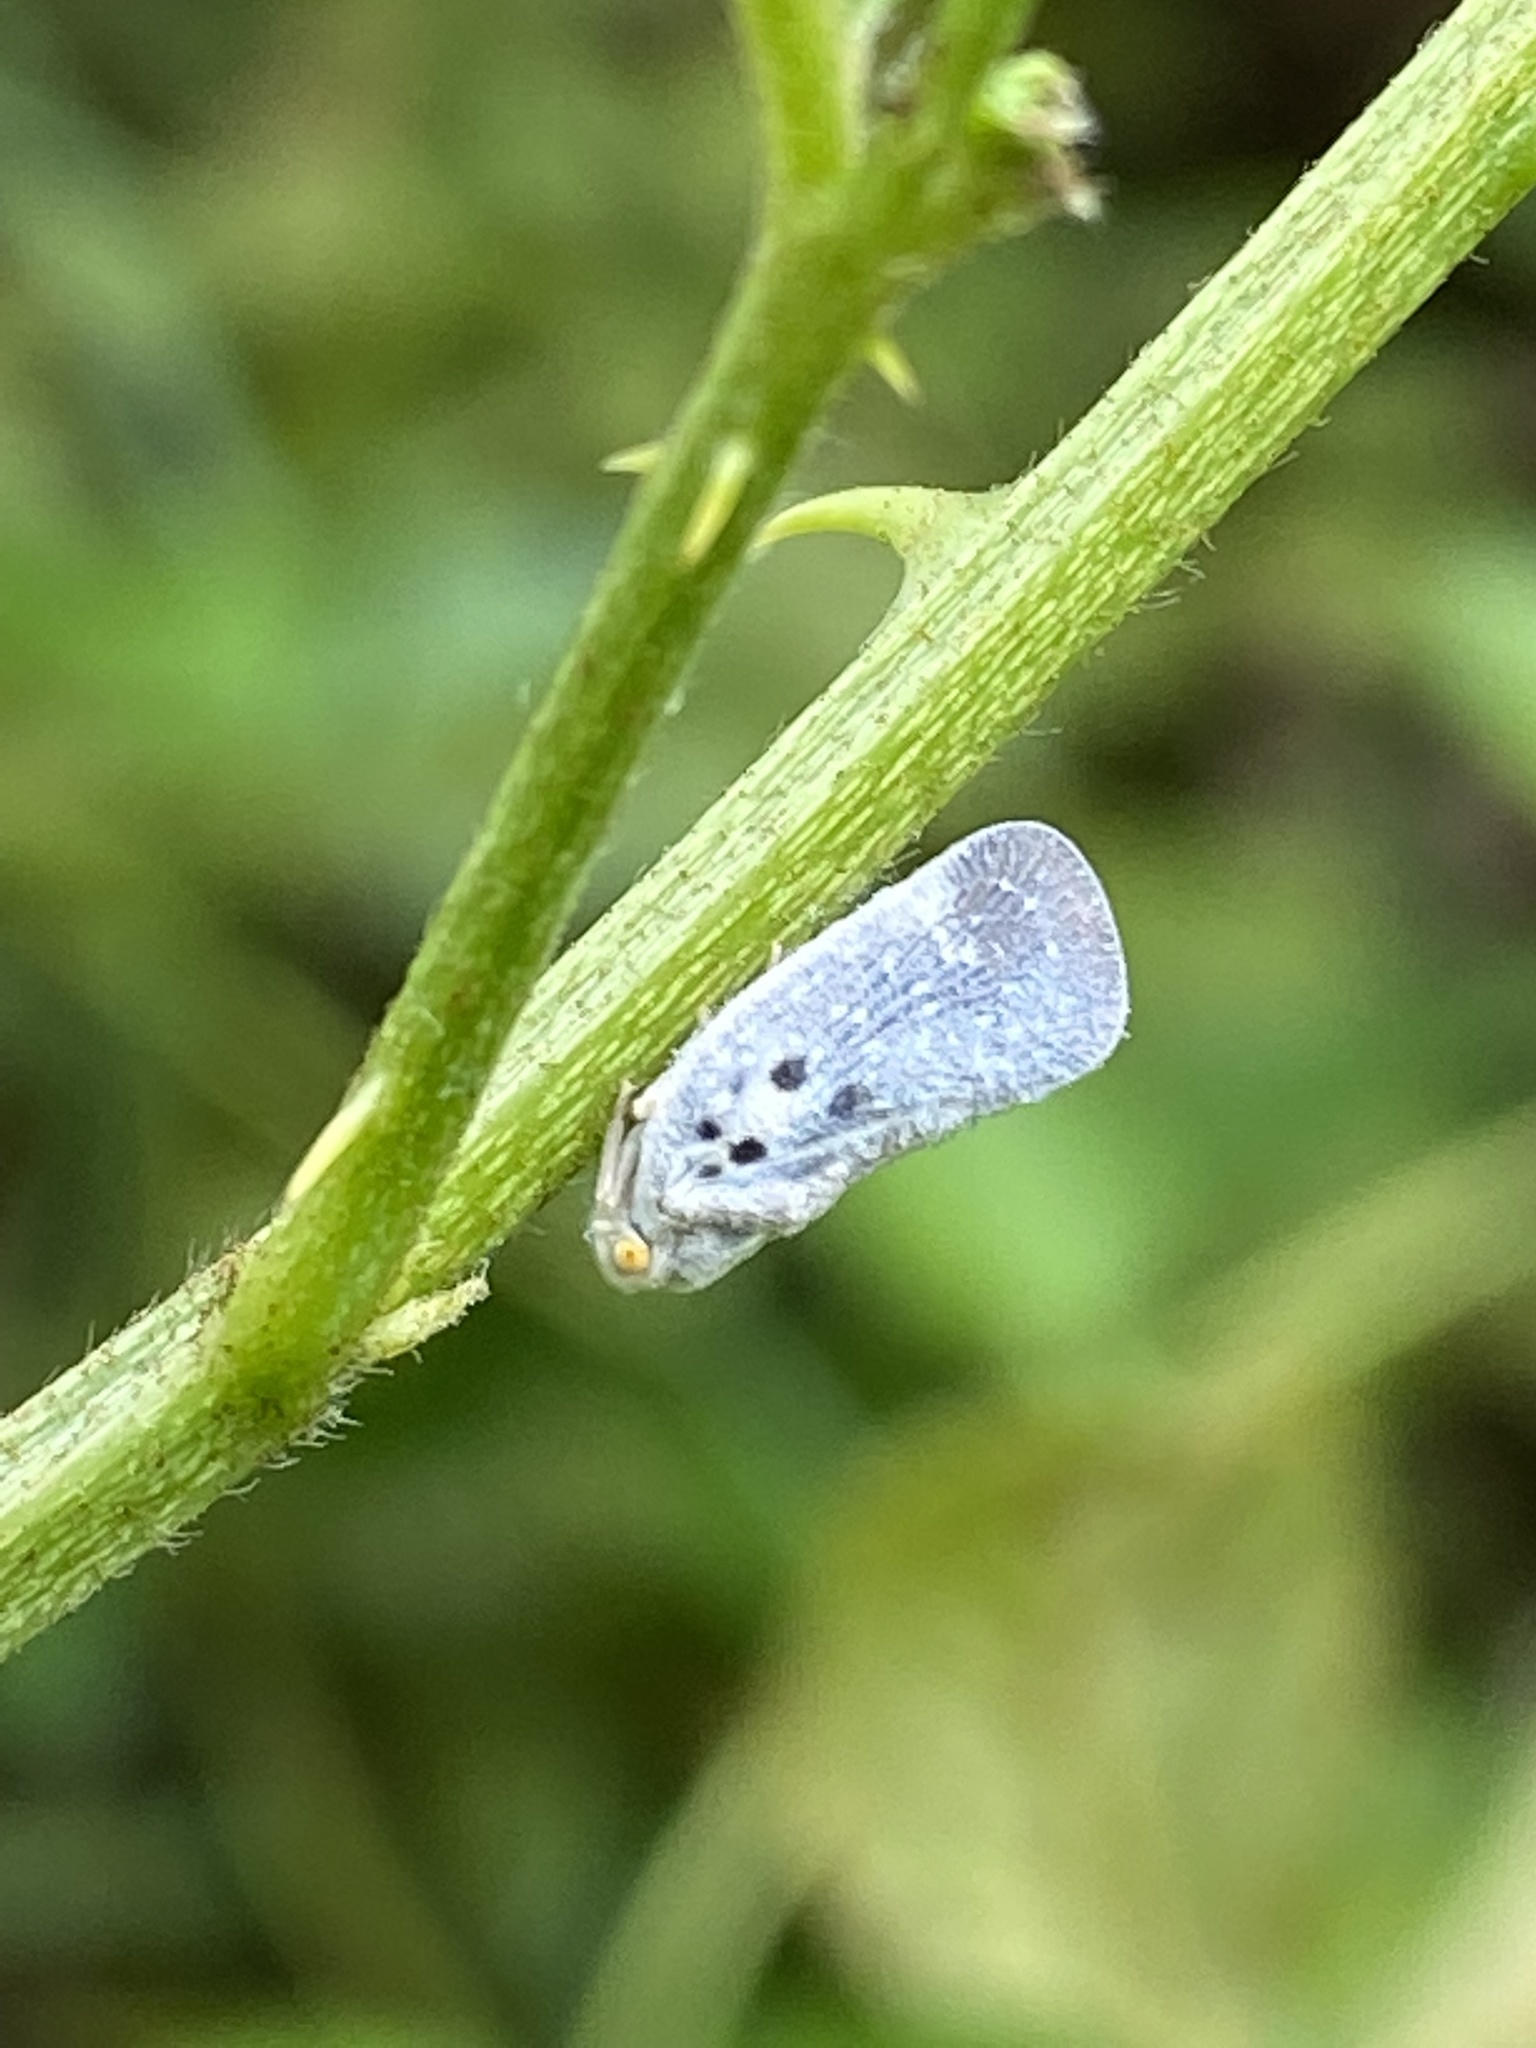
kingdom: Animalia
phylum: Arthropoda
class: Insecta
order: Hemiptera
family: Flatidae
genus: Metcalfa
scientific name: Metcalfa pruinosa
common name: Citrus flatid planthopper
